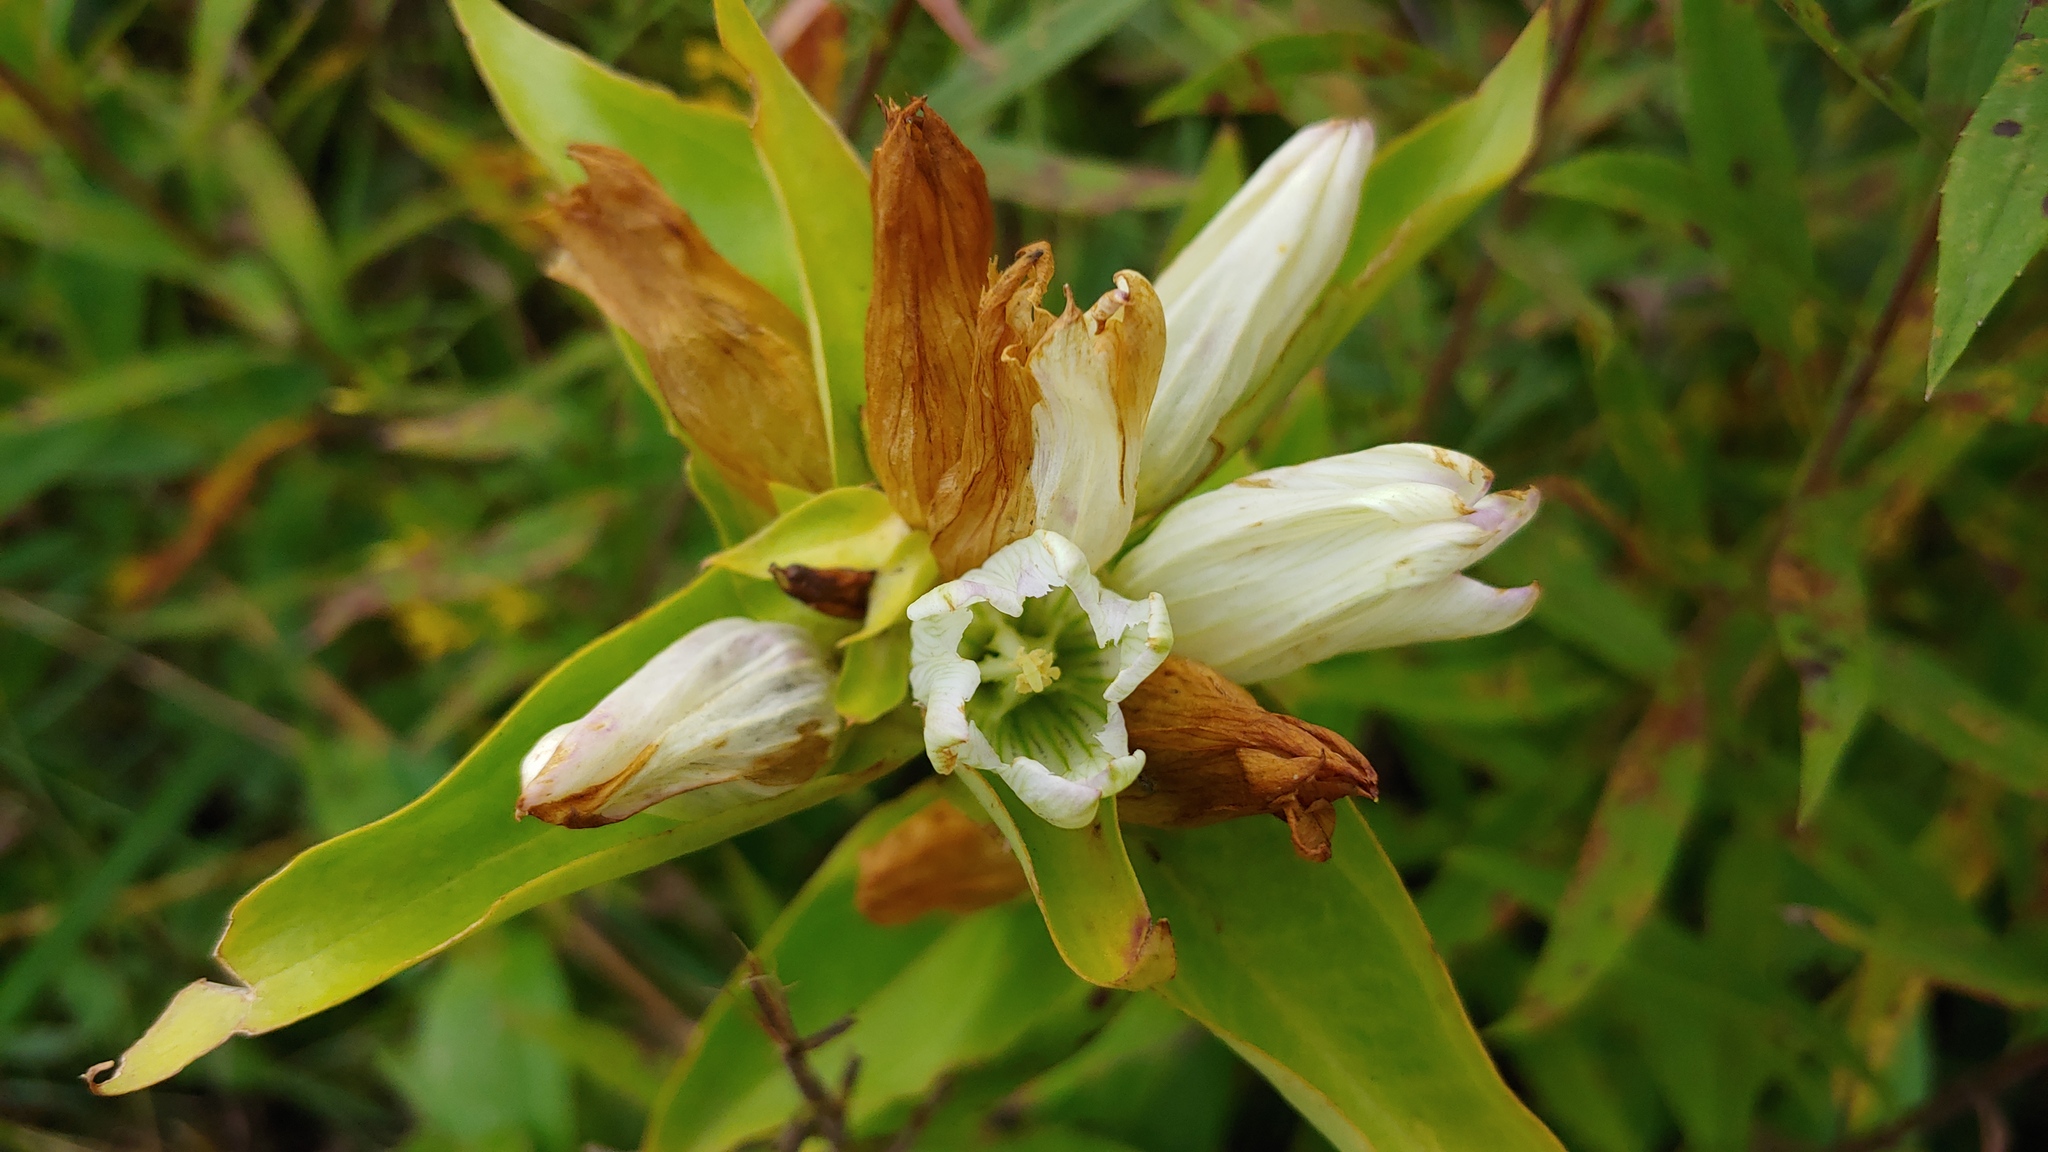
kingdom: Plantae
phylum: Tracheophyta
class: Magnoliopsida
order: Gentianales
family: Gentianaceae
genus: Gentiana
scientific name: Gentiana alba
